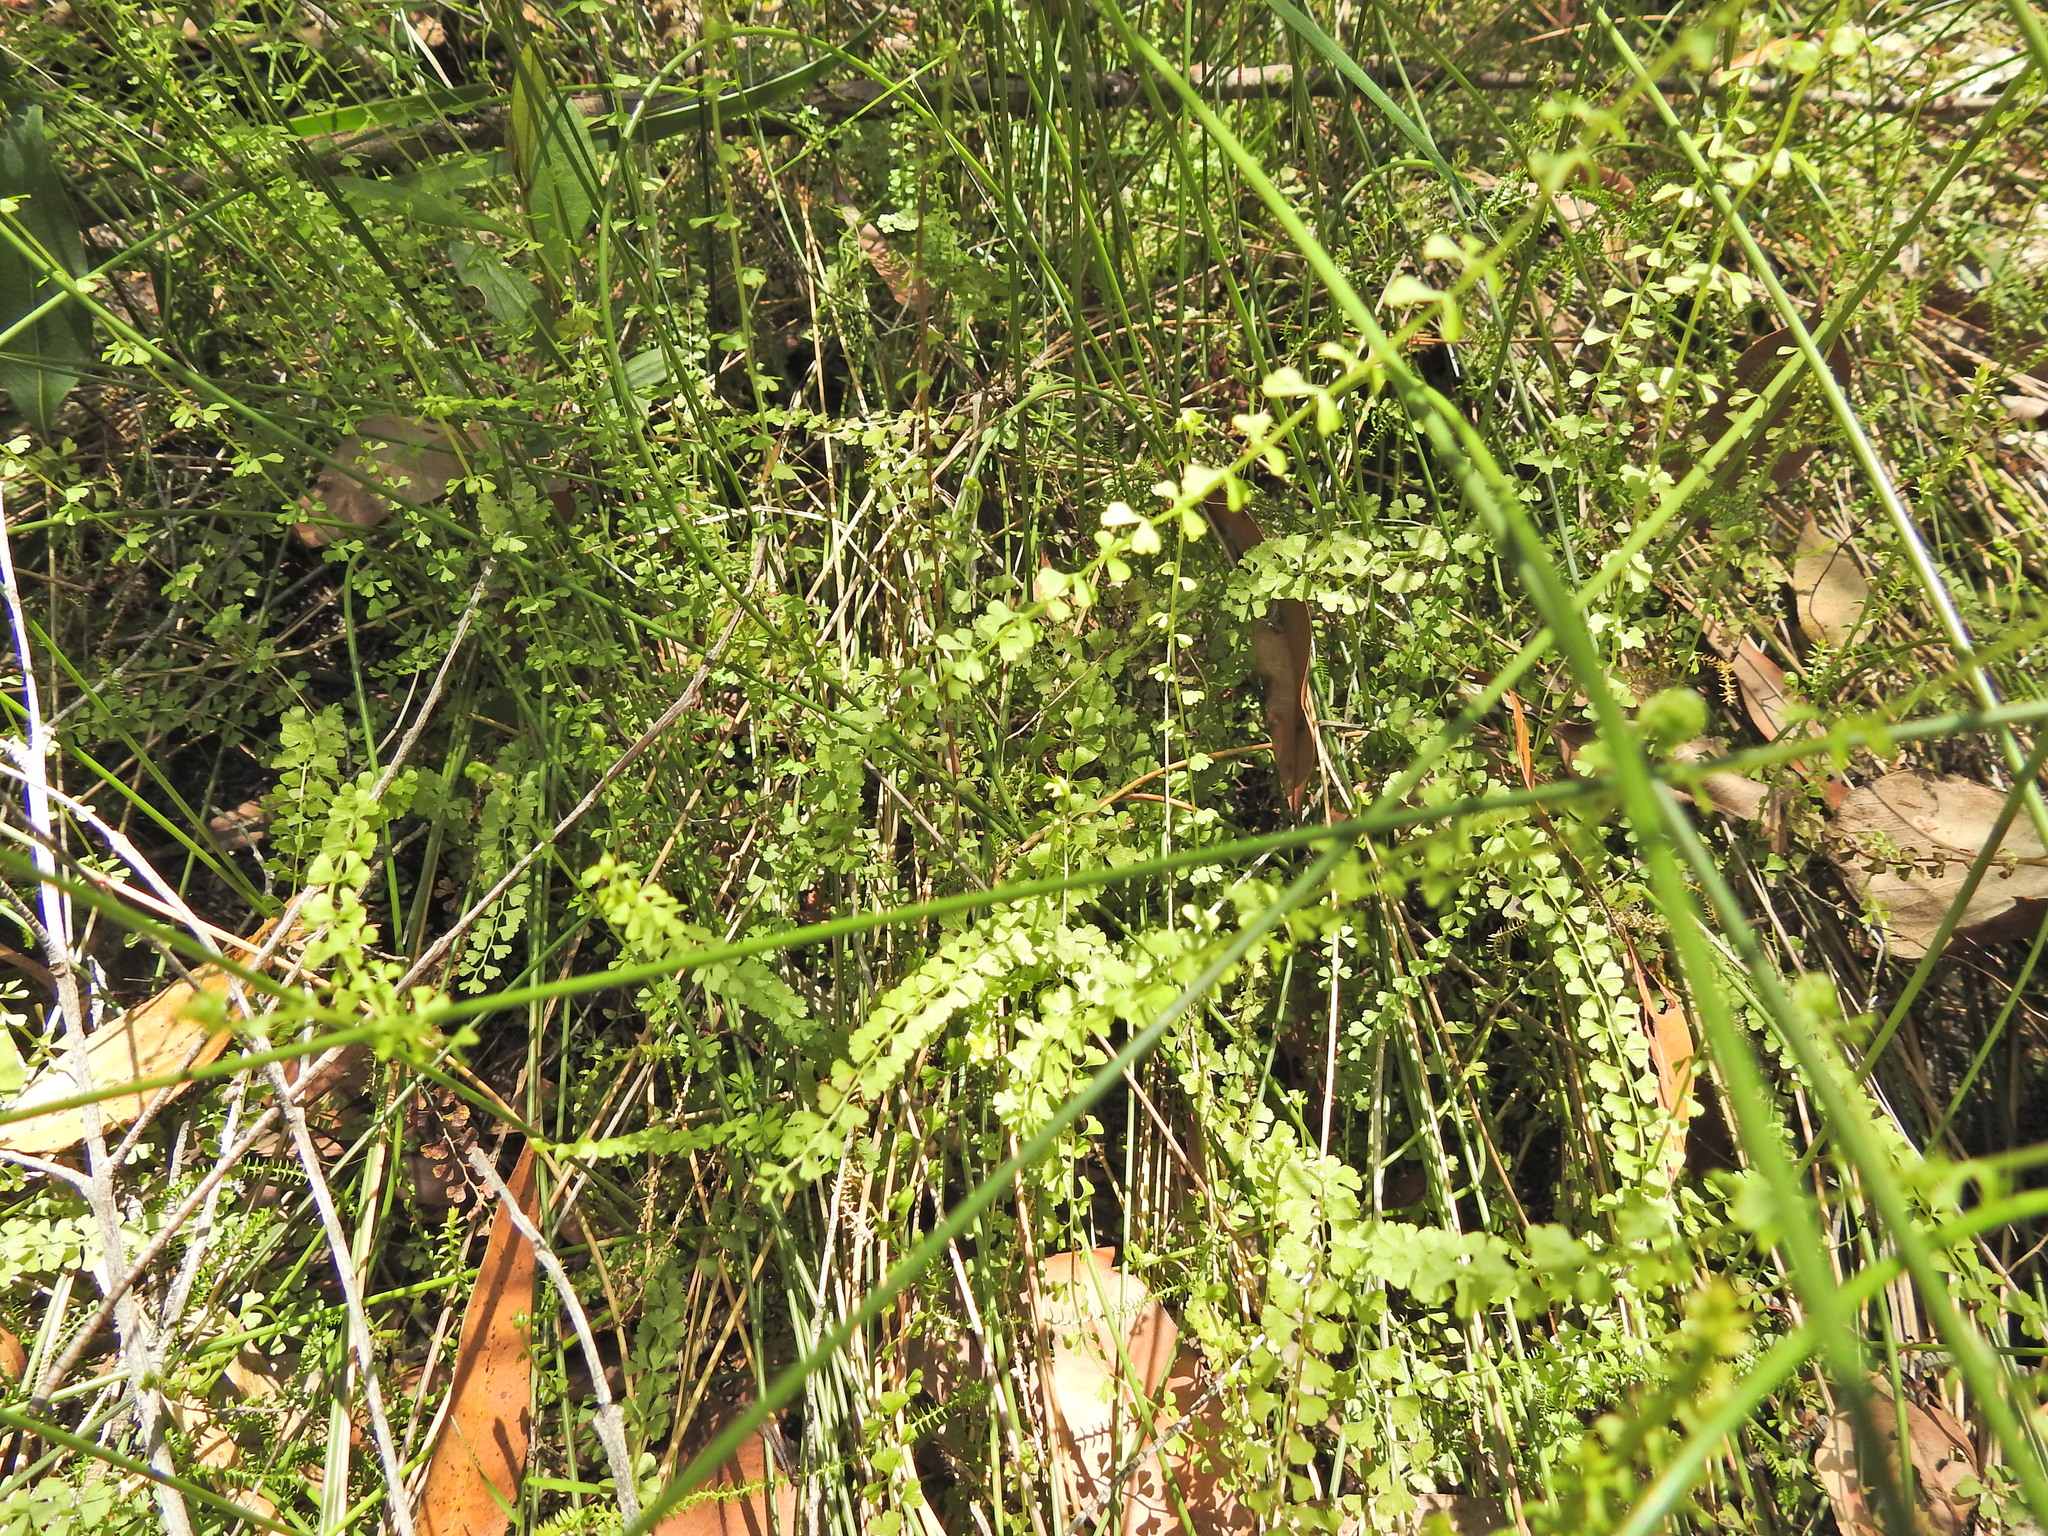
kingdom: Plantae
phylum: Tracheophyta
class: Polypodiopsida
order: Polypodiales
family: Lindsaeaceae
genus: Lindsaea
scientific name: Lindsaea incisa
